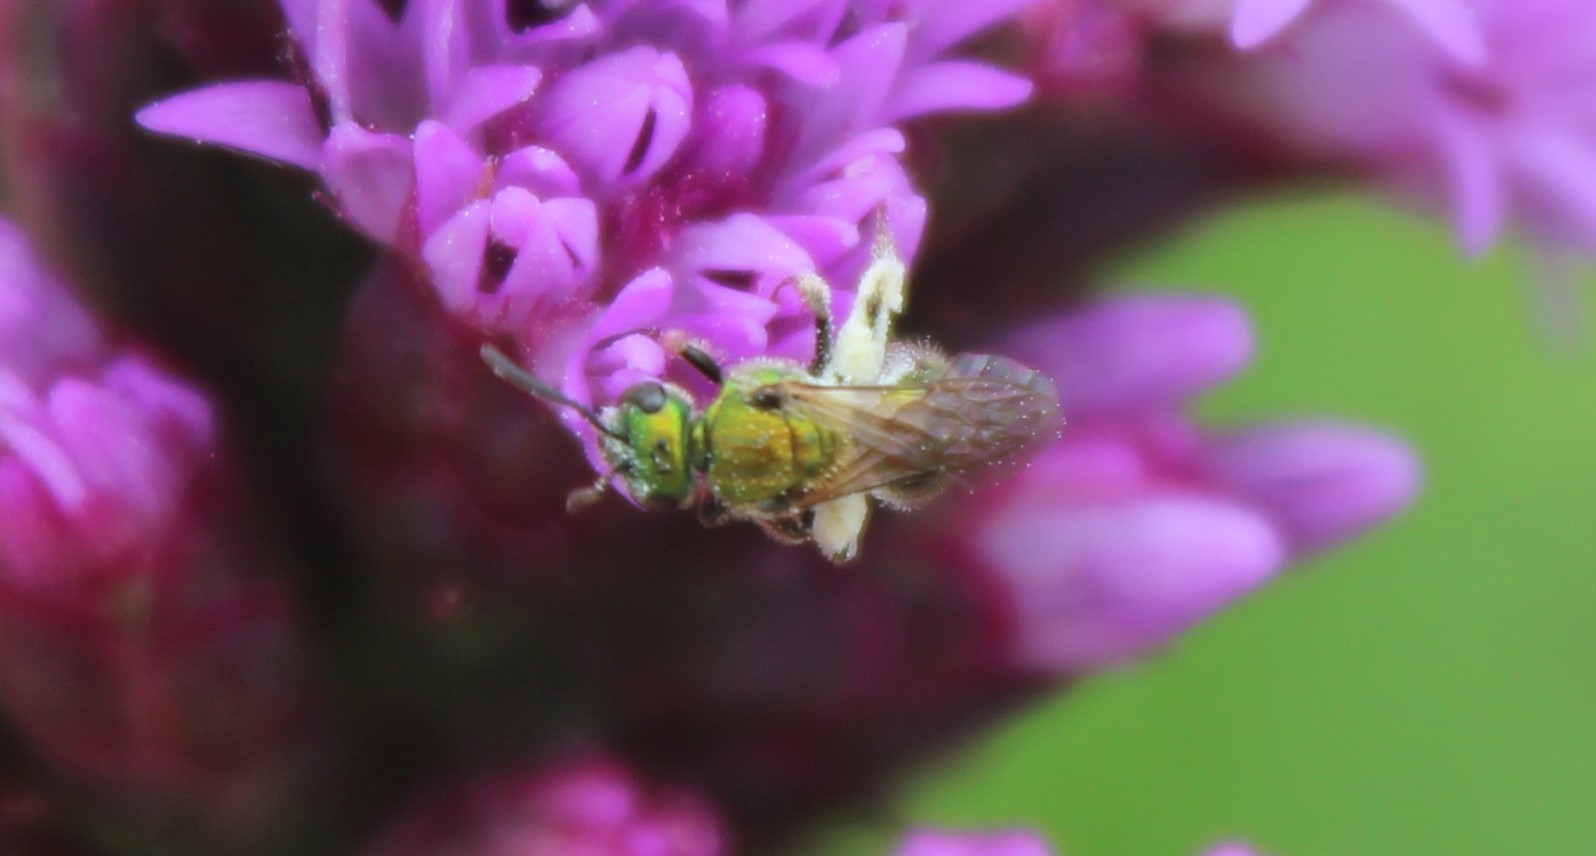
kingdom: Animalia
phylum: Arthropoda
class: Insecta
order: Hymenoptera
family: Halictidae
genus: Augochlora
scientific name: Augochlora pura
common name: Pure green sweat bee
